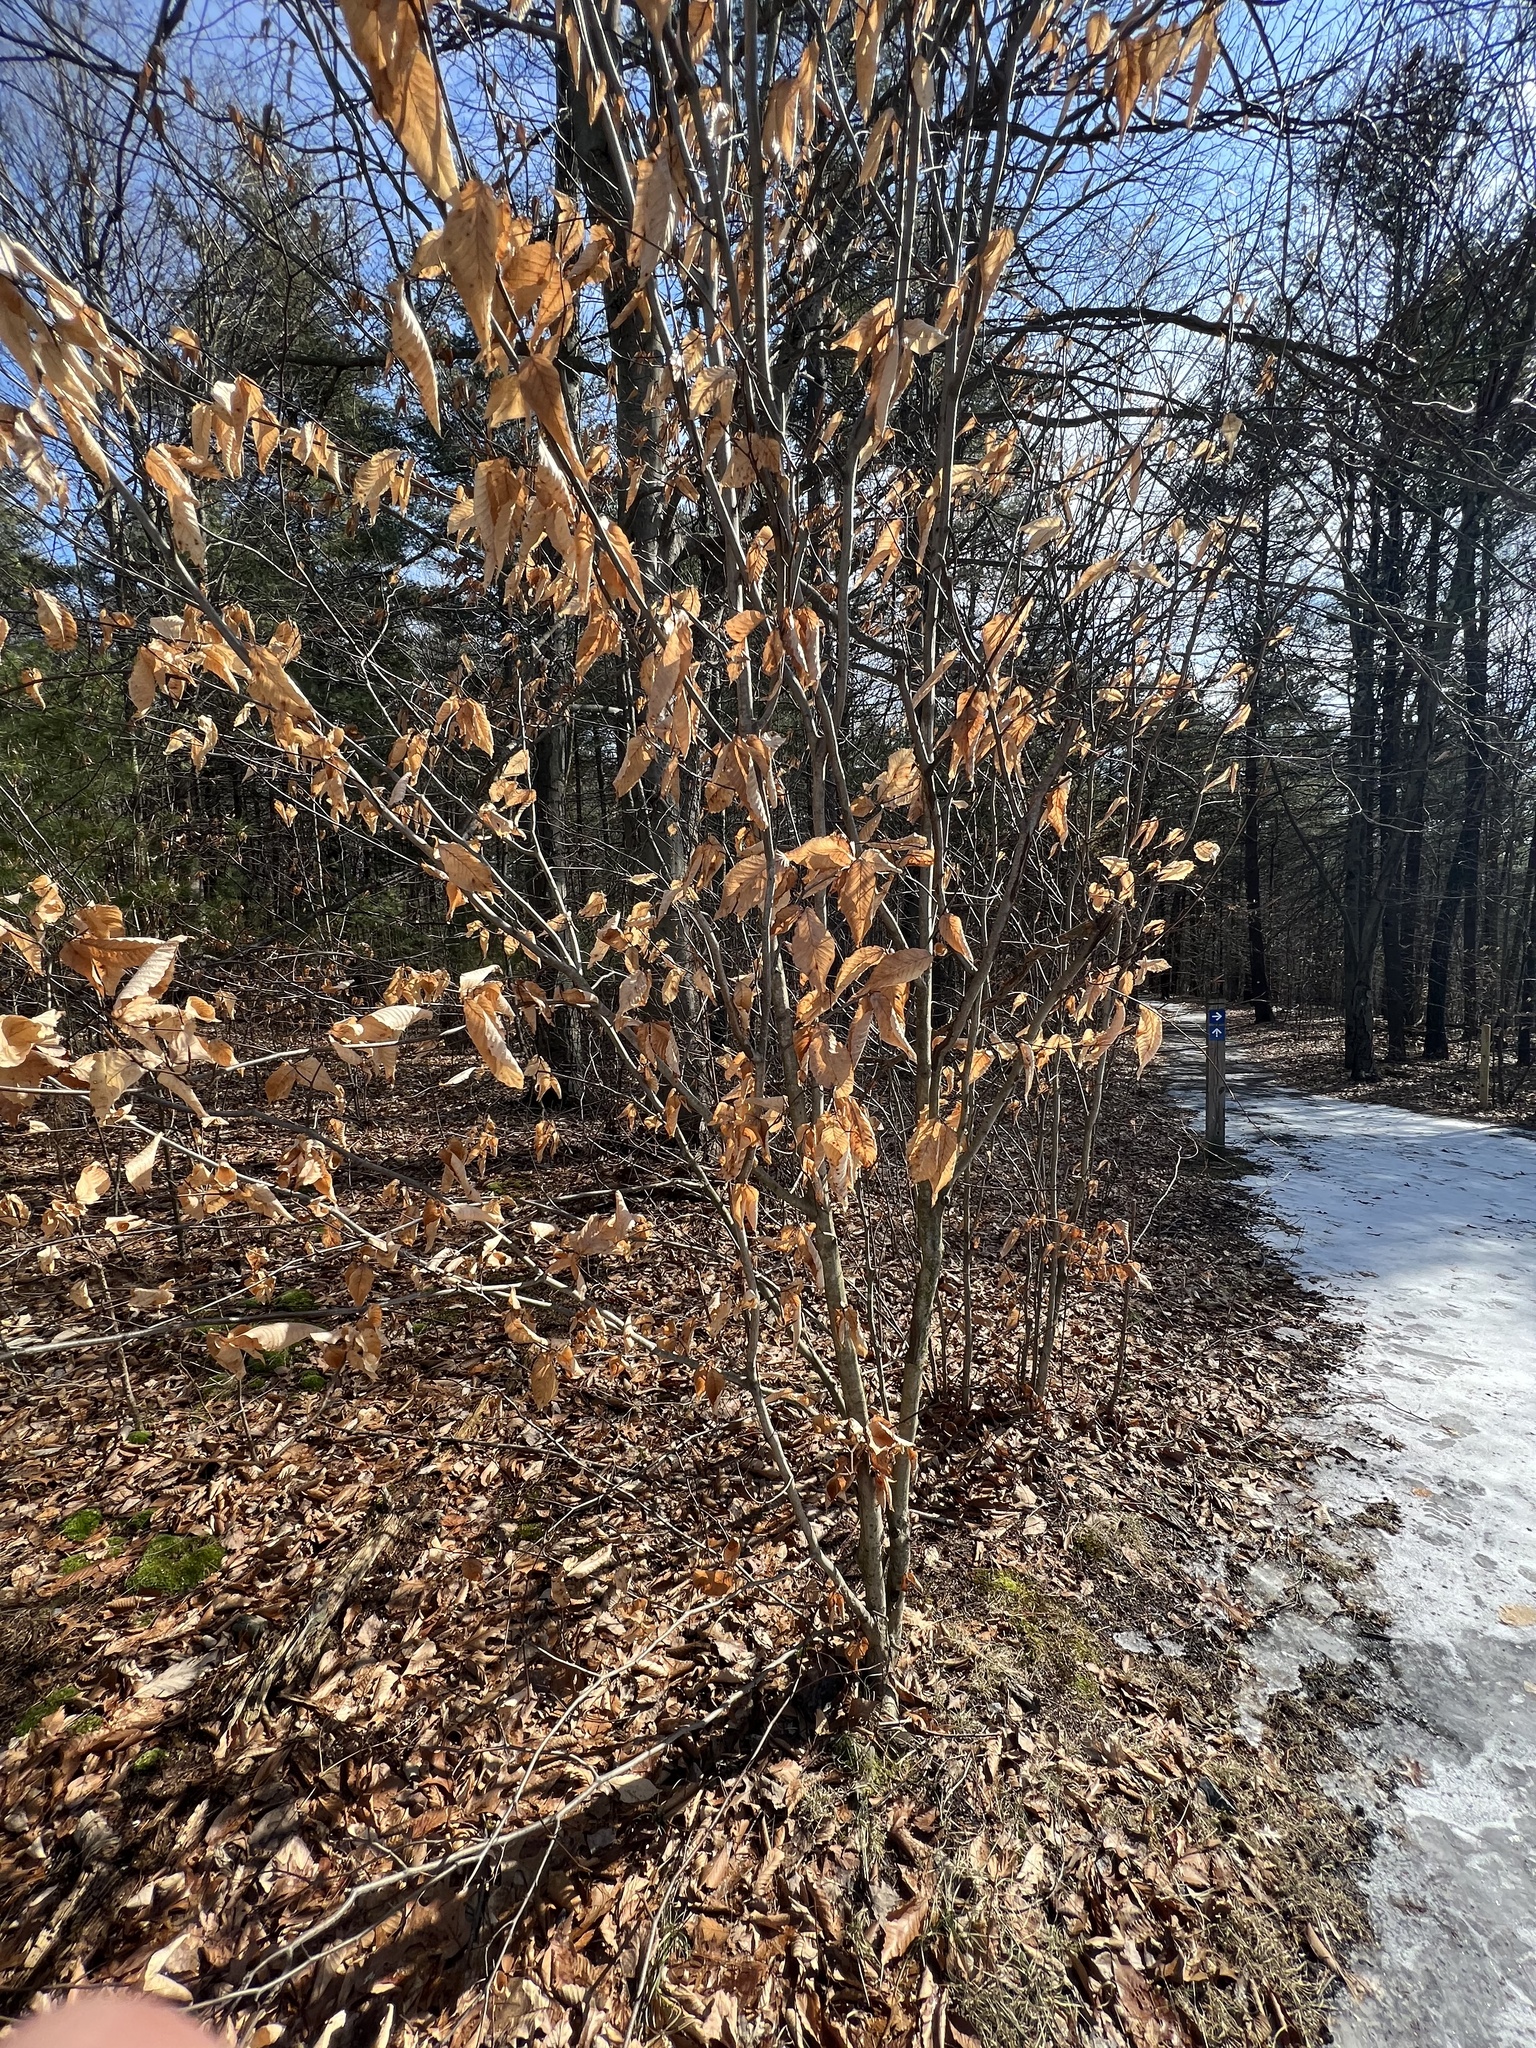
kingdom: Plantae
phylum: Tracheophyta
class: Magnoliopsida
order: Fagales
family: Fagaceae
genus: Fagus
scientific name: Fagus grandifolia
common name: American beech
